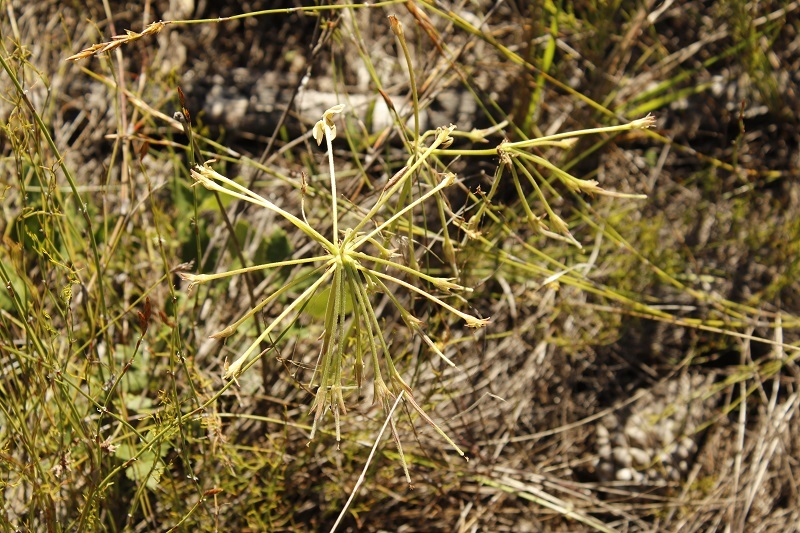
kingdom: Plantae
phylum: Tracheophyta
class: Magnoliopsida
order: Geraniales
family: Geraniaceae
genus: Pelargonium
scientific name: Pelargonium pulverulentum
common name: Powdered-leaf pelargonium
